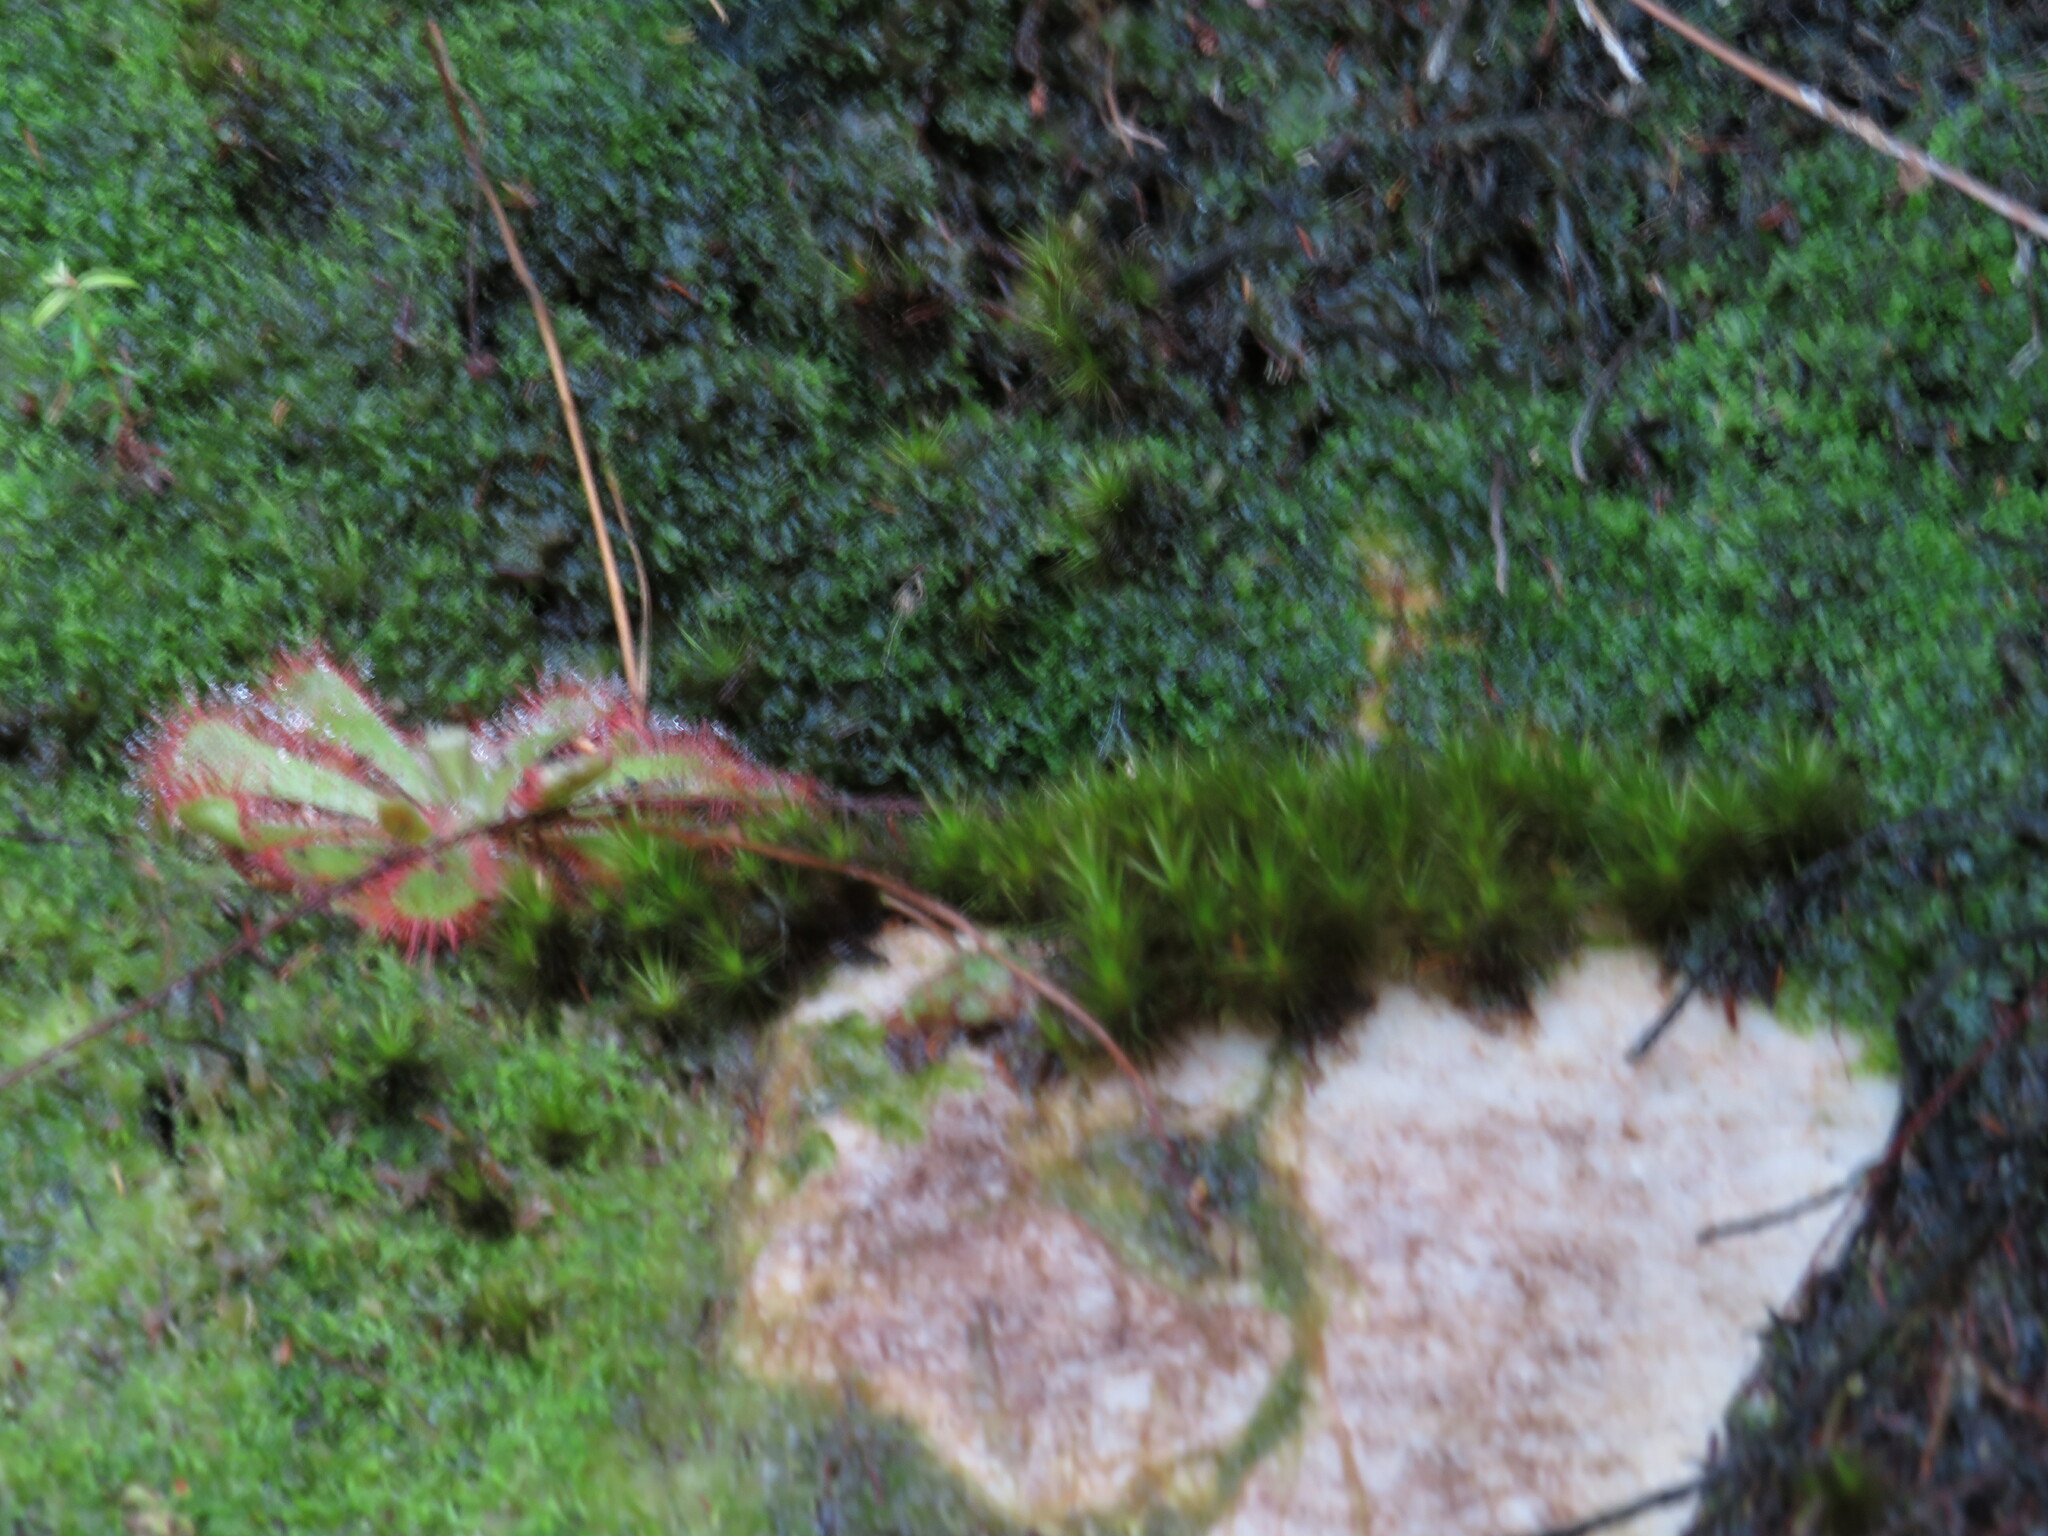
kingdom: Plantae
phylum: Tracheophyta
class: Magnoliopsida
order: Caryophyllales
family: Droseraceae
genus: Drosera
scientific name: Drosera aliciae
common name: Alice sundew
